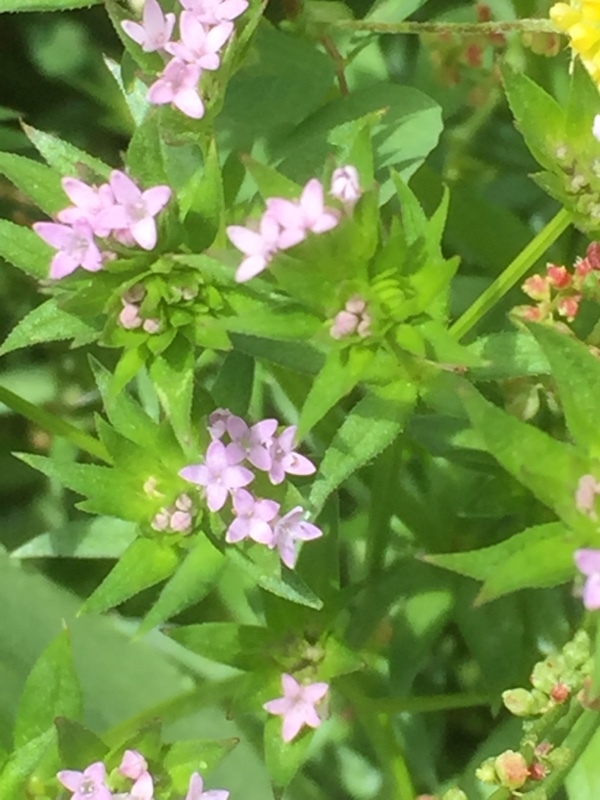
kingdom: Plantae
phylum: Tracheophyta
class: Magnoliopsida
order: Gentianales
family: Rubiaceae
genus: Sherardia
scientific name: Sherardia arvensis
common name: Field madder
